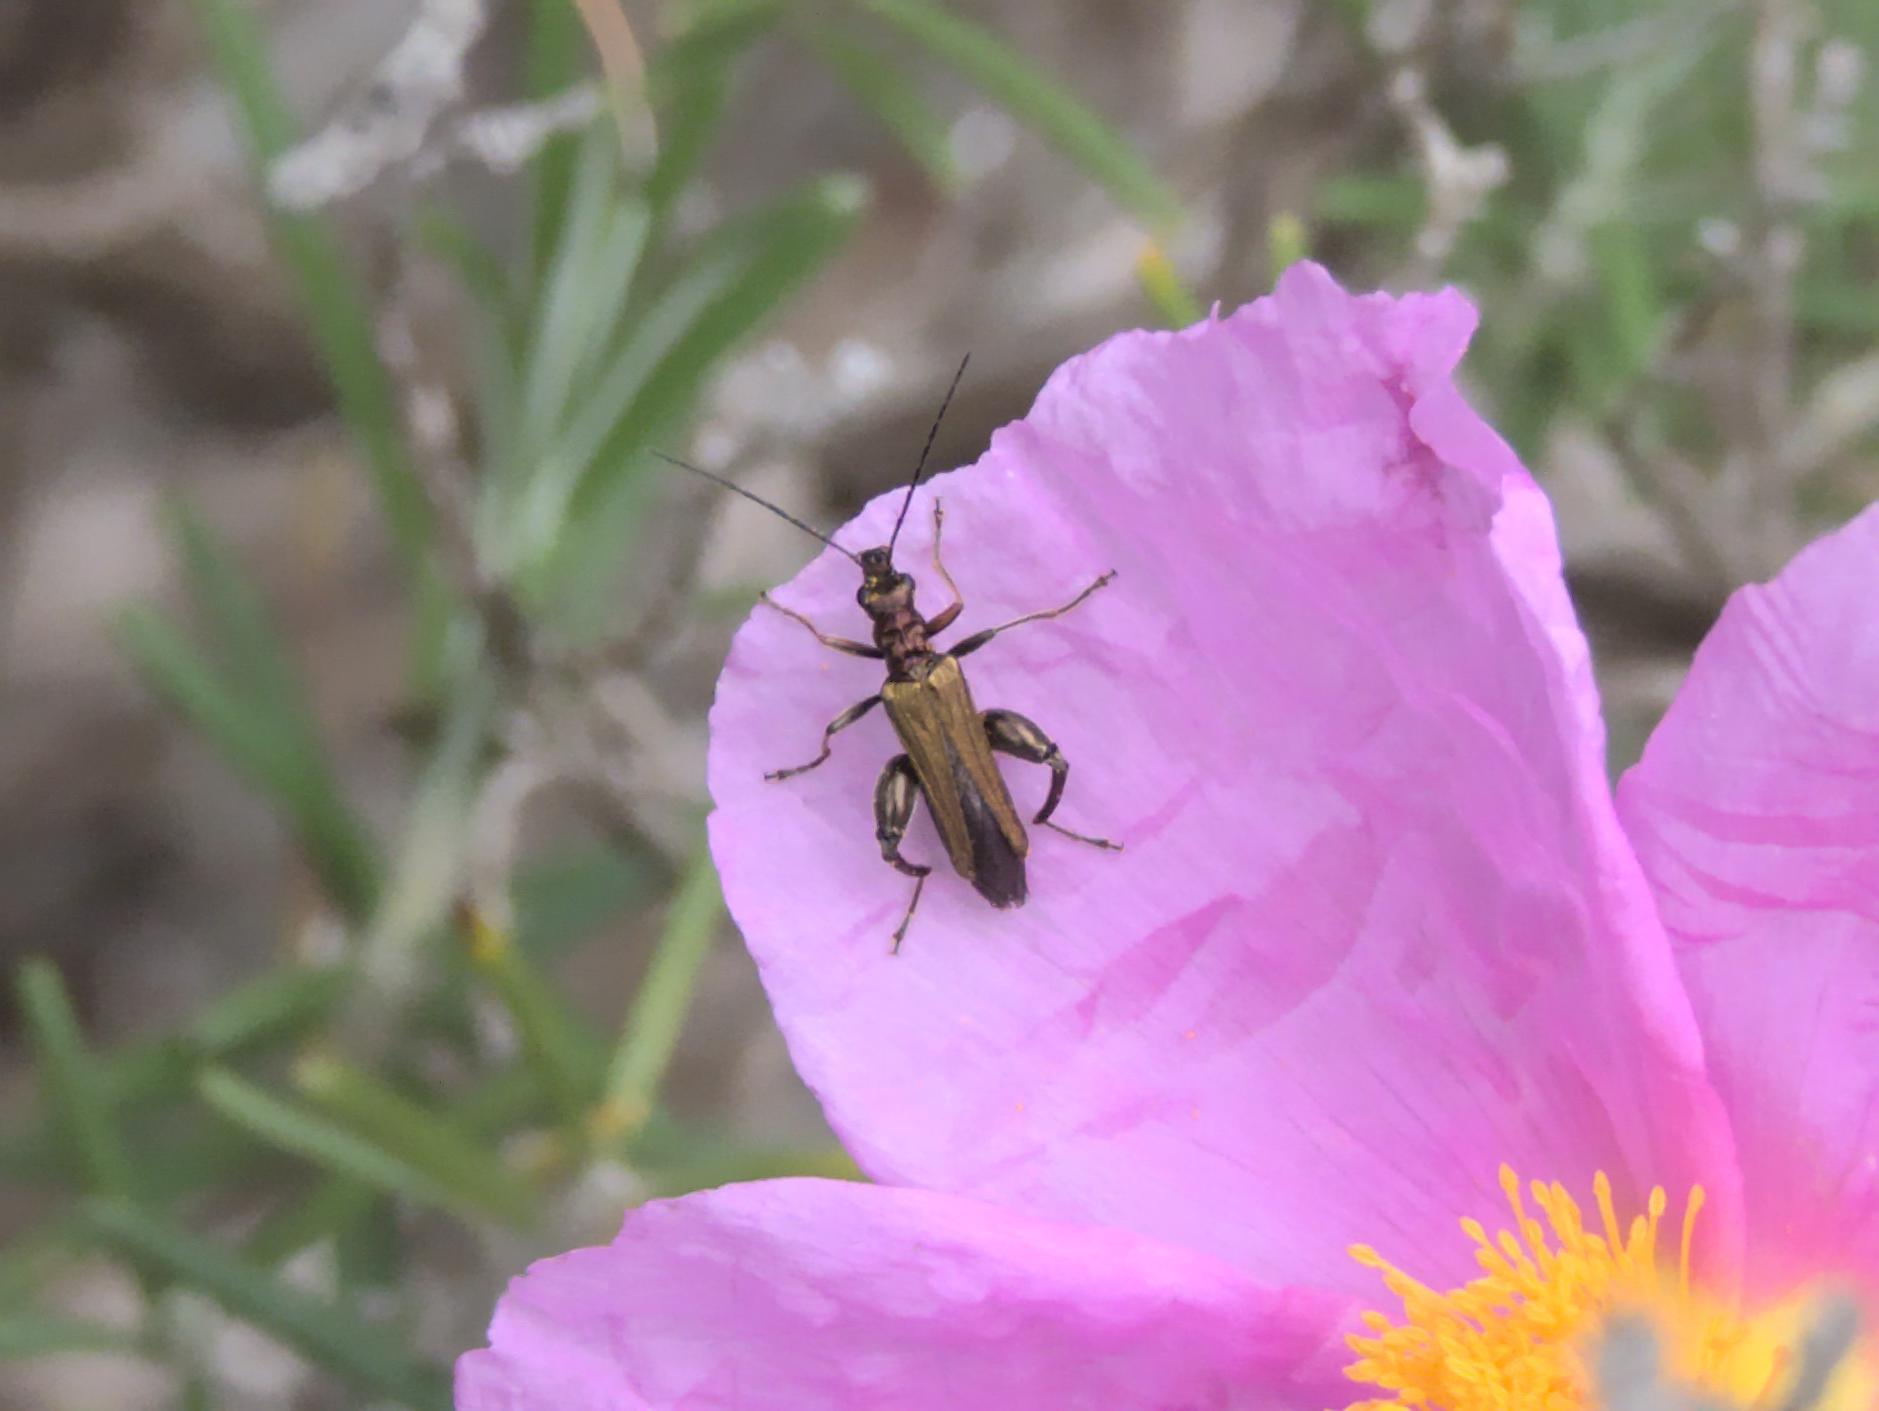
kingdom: Animalia
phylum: Arthropoda
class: Insecta
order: Coleoptera
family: Oedemeridae
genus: Oedemera
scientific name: Oedemera flavipes
